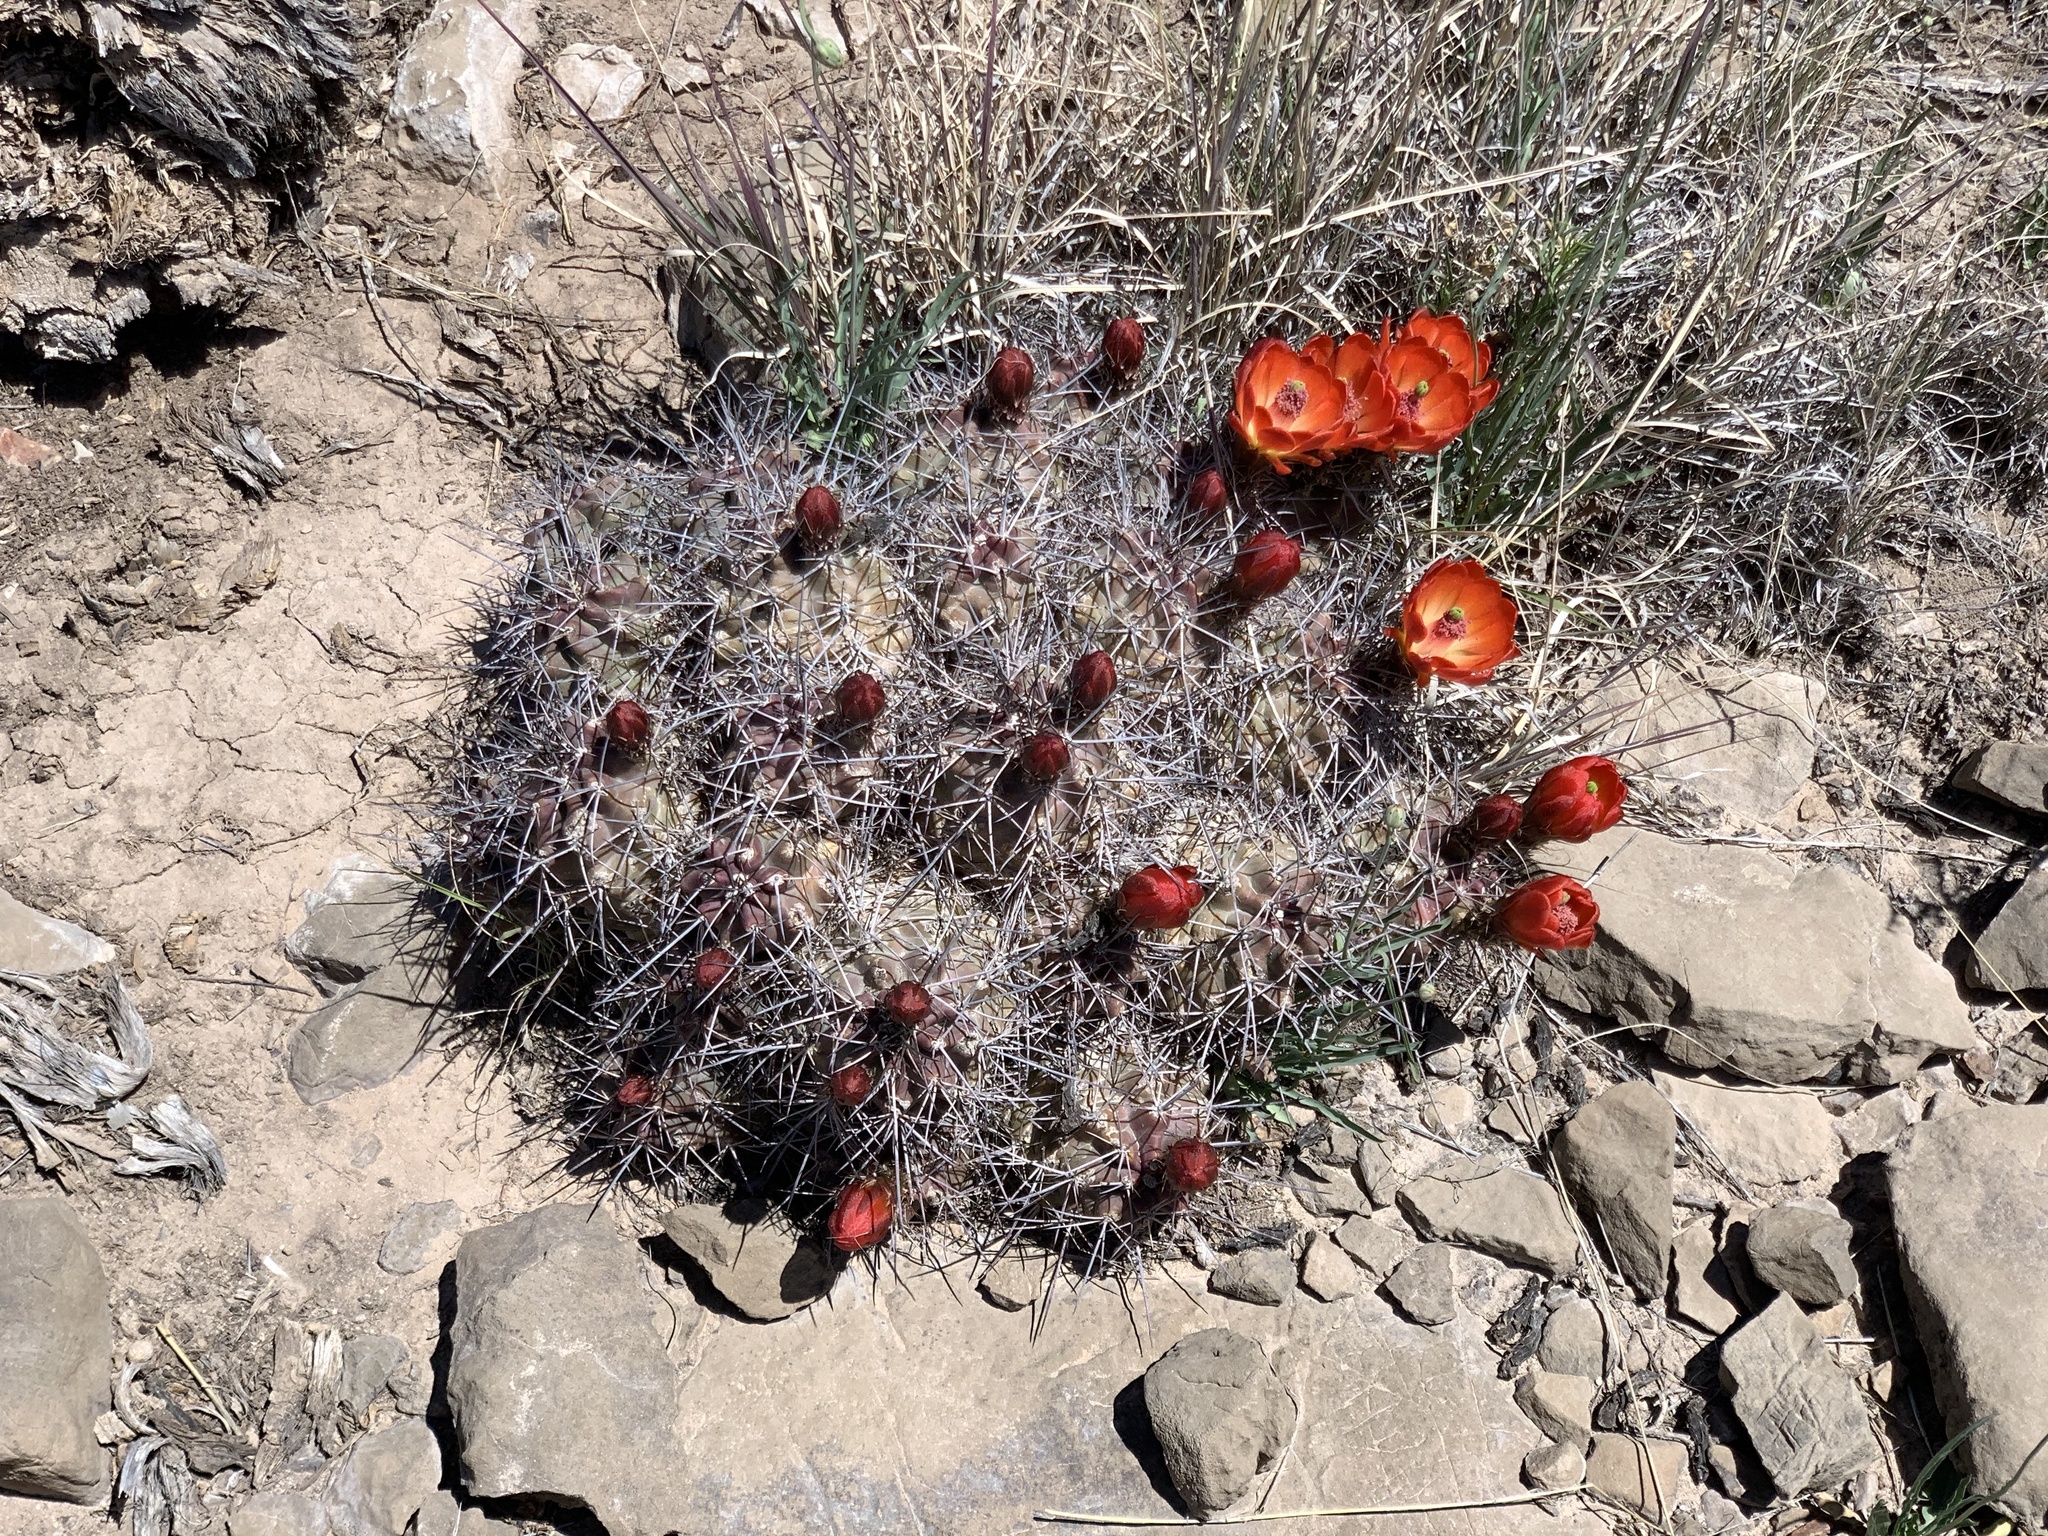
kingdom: Plantae
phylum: Tracheophyta
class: Magnoliopsida
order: Caryophyllales
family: Cactaceae
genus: Echinocereus
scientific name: Echinocereus coccineus
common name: Scarlet hedgehog cactus
